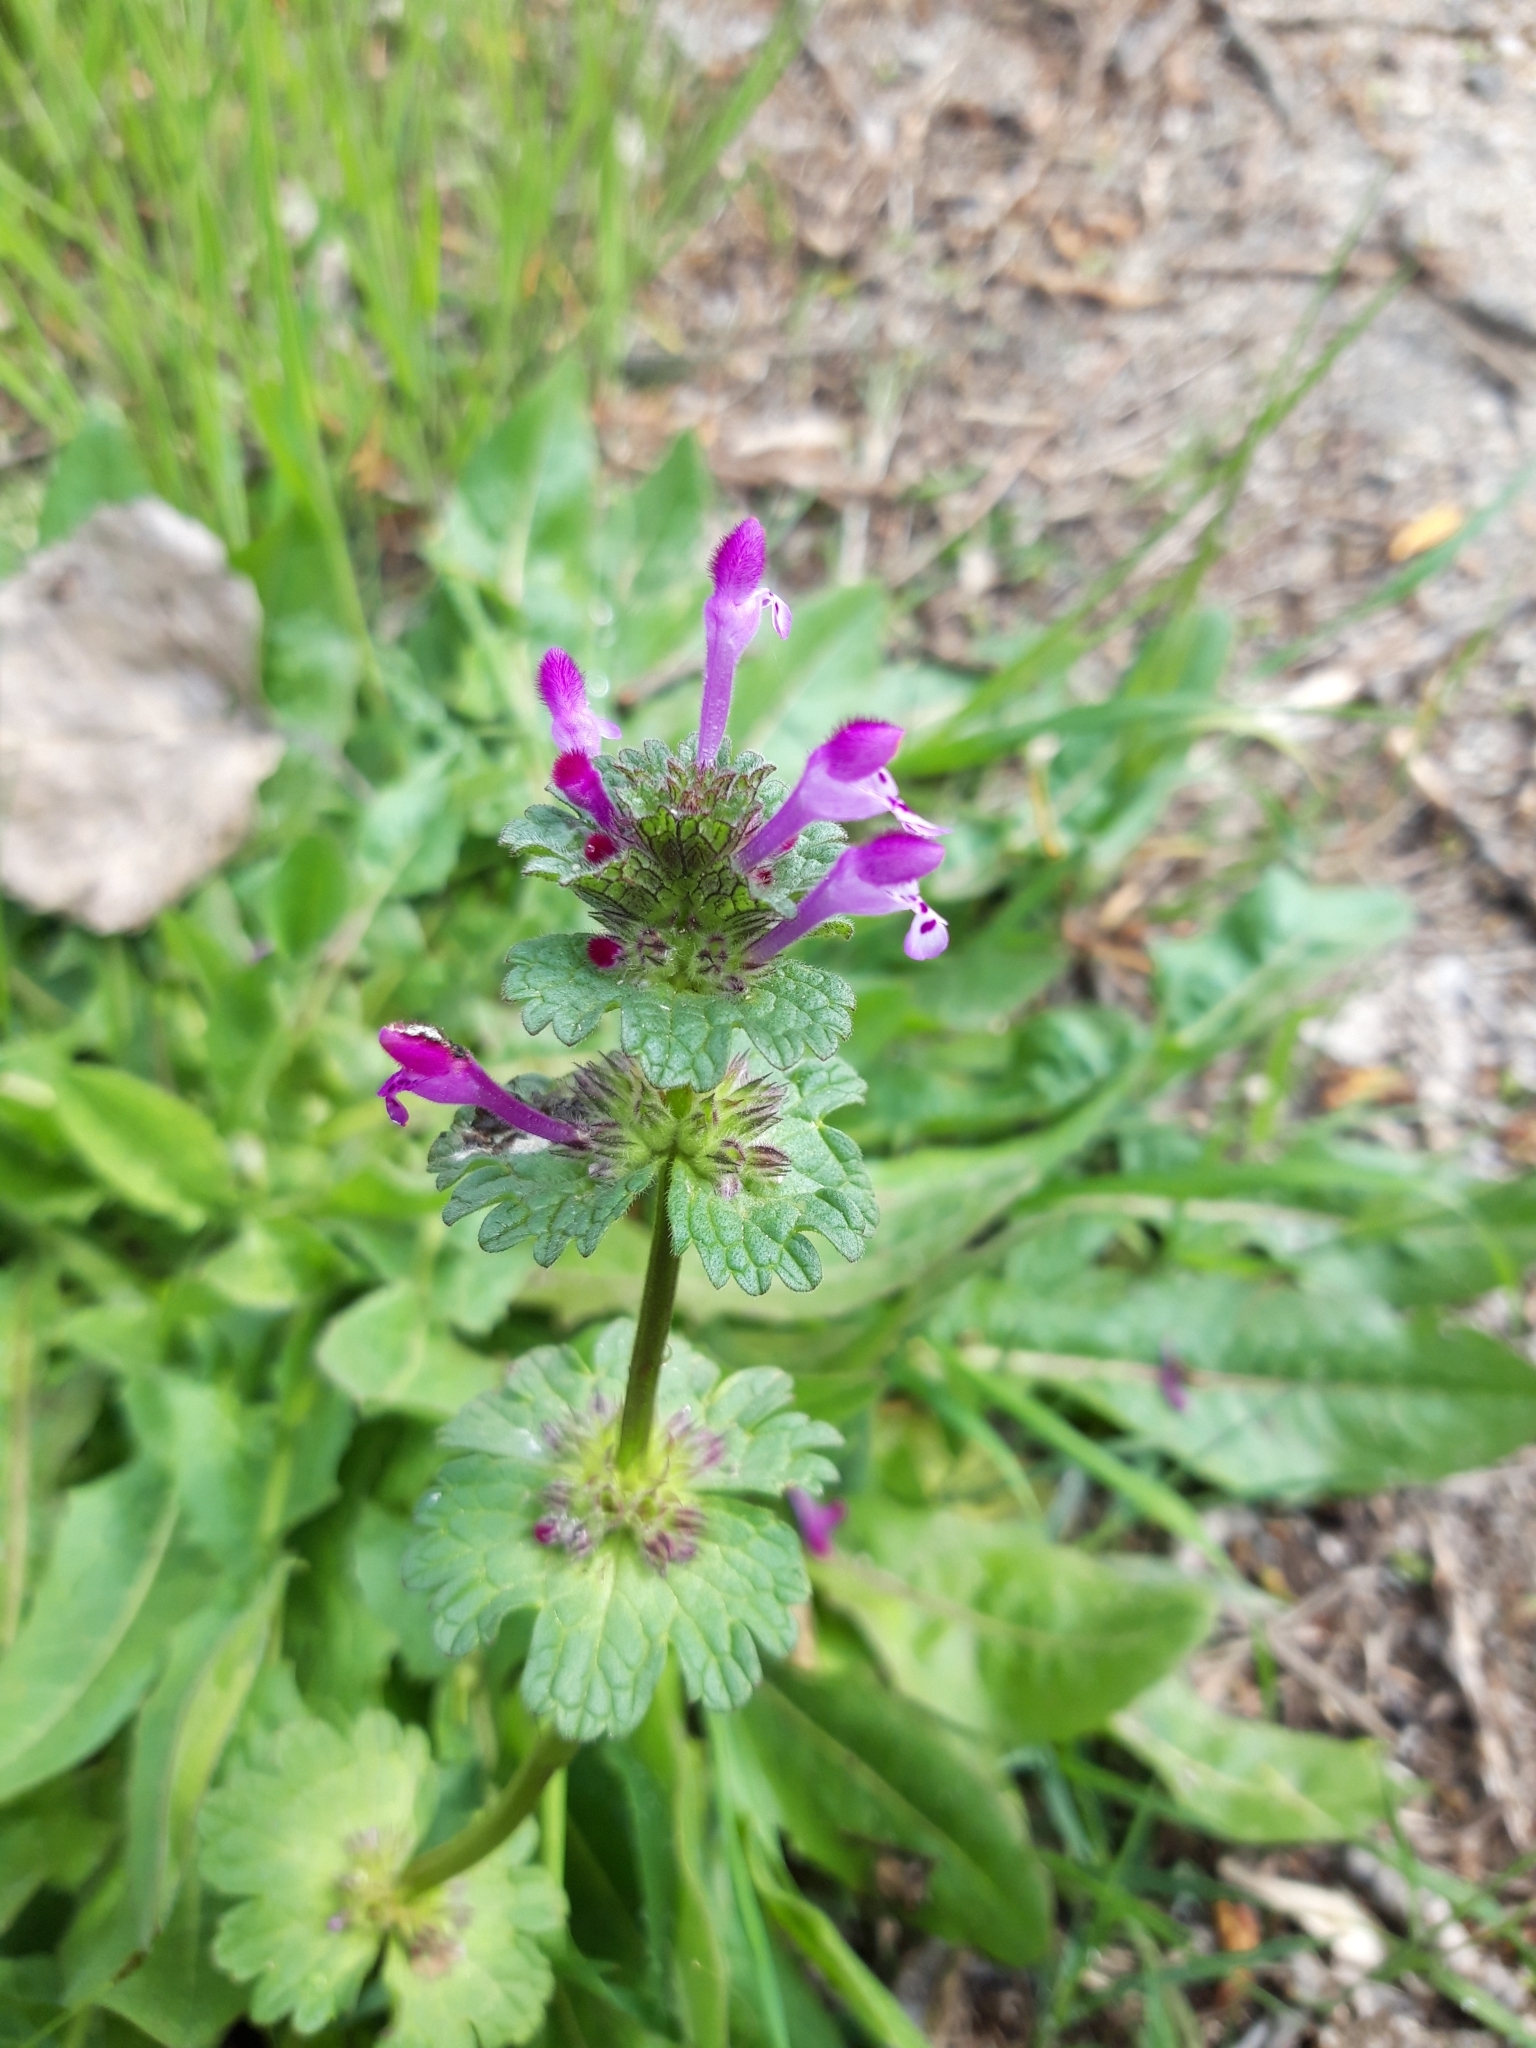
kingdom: Plantae
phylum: Tracheophyta
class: Magnoliopsida
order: Lamiales
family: Lamiaceae
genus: Lamium
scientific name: Lamium amplexicaule
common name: Henbit dead-nettle
